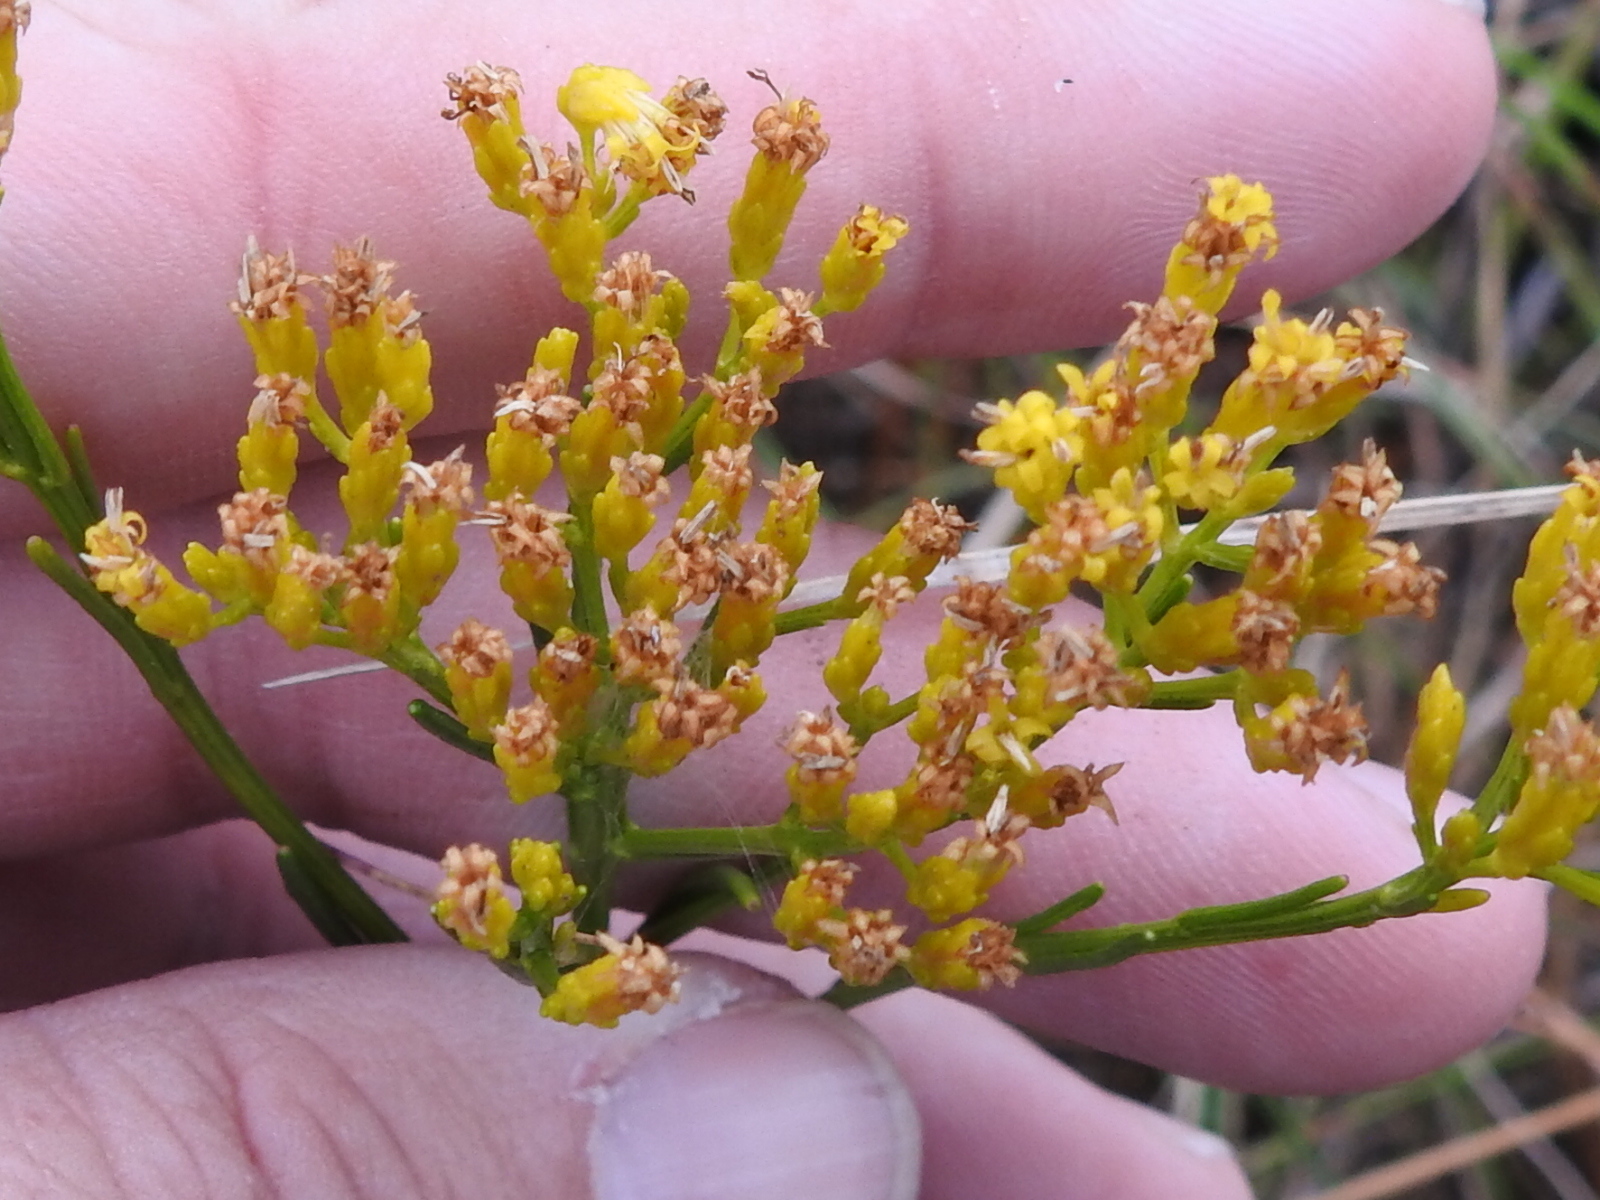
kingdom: Plantae
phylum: Tracheophyta
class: Magnoliopsida
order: Asterales
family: Asteraceae
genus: Bigelowia
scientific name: Bigelowia australis
